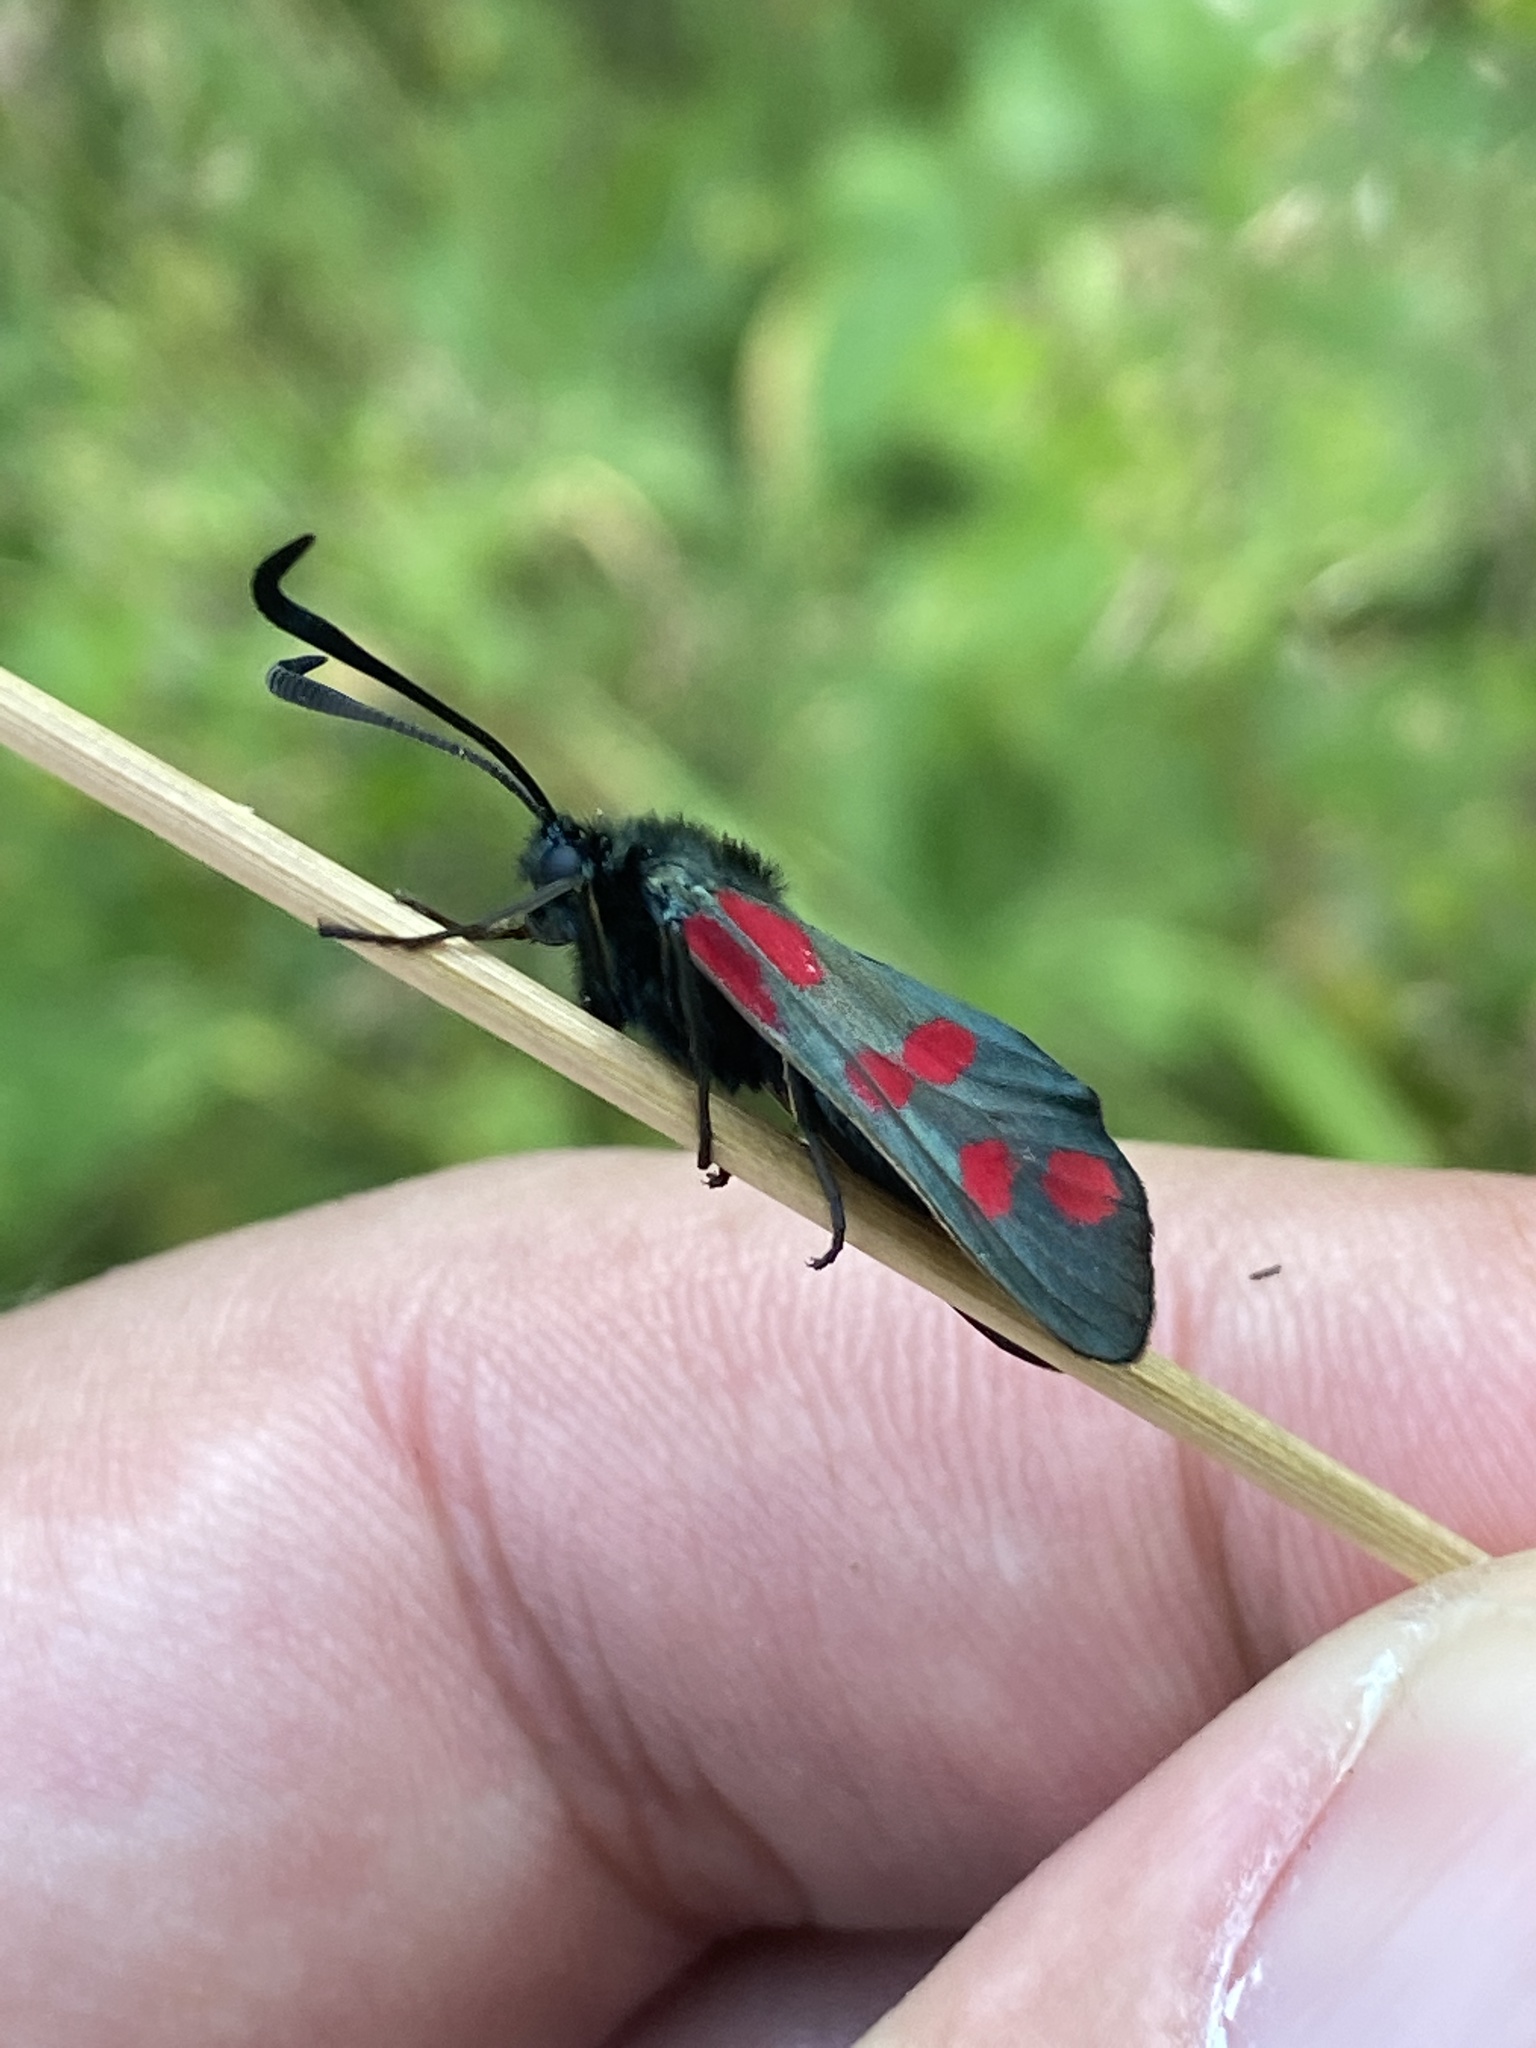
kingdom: Animalia
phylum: Arthropoda
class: Insecta
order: Lepidoptera
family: Zygaenidae
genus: Zygaena
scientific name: Zygaena filipendulae
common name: Six-spot burnet
